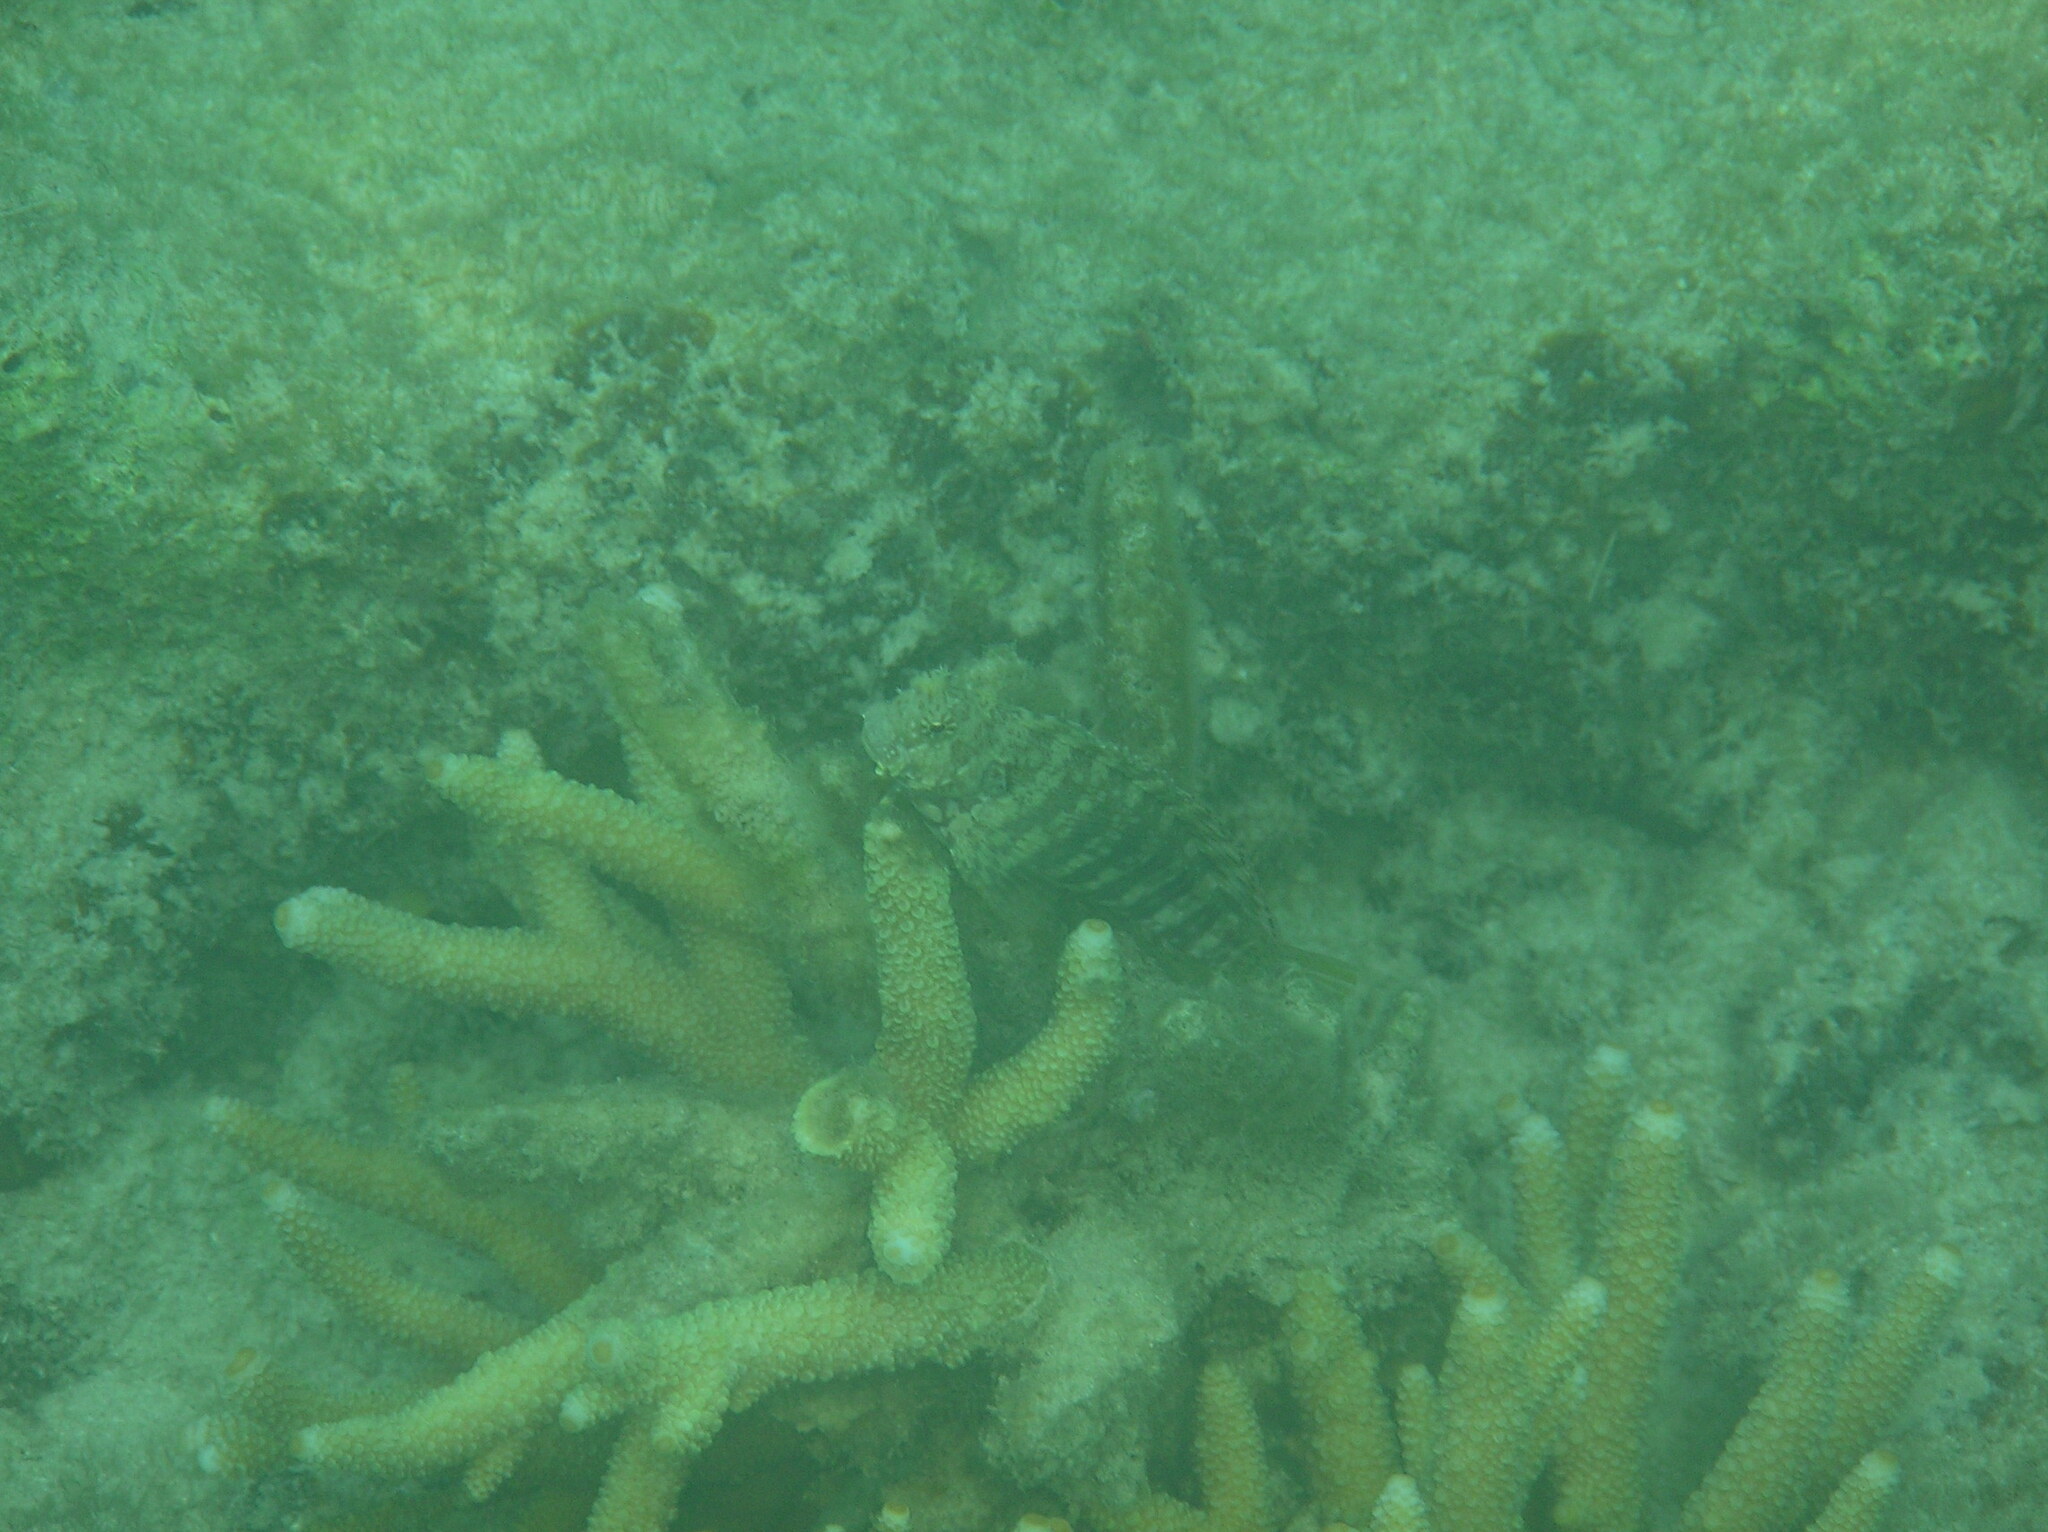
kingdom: Animalia
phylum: Chordata
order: Perciformes
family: Blenniidae
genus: Salarias
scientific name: Salarias fasciatus
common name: Jewelled blenny
